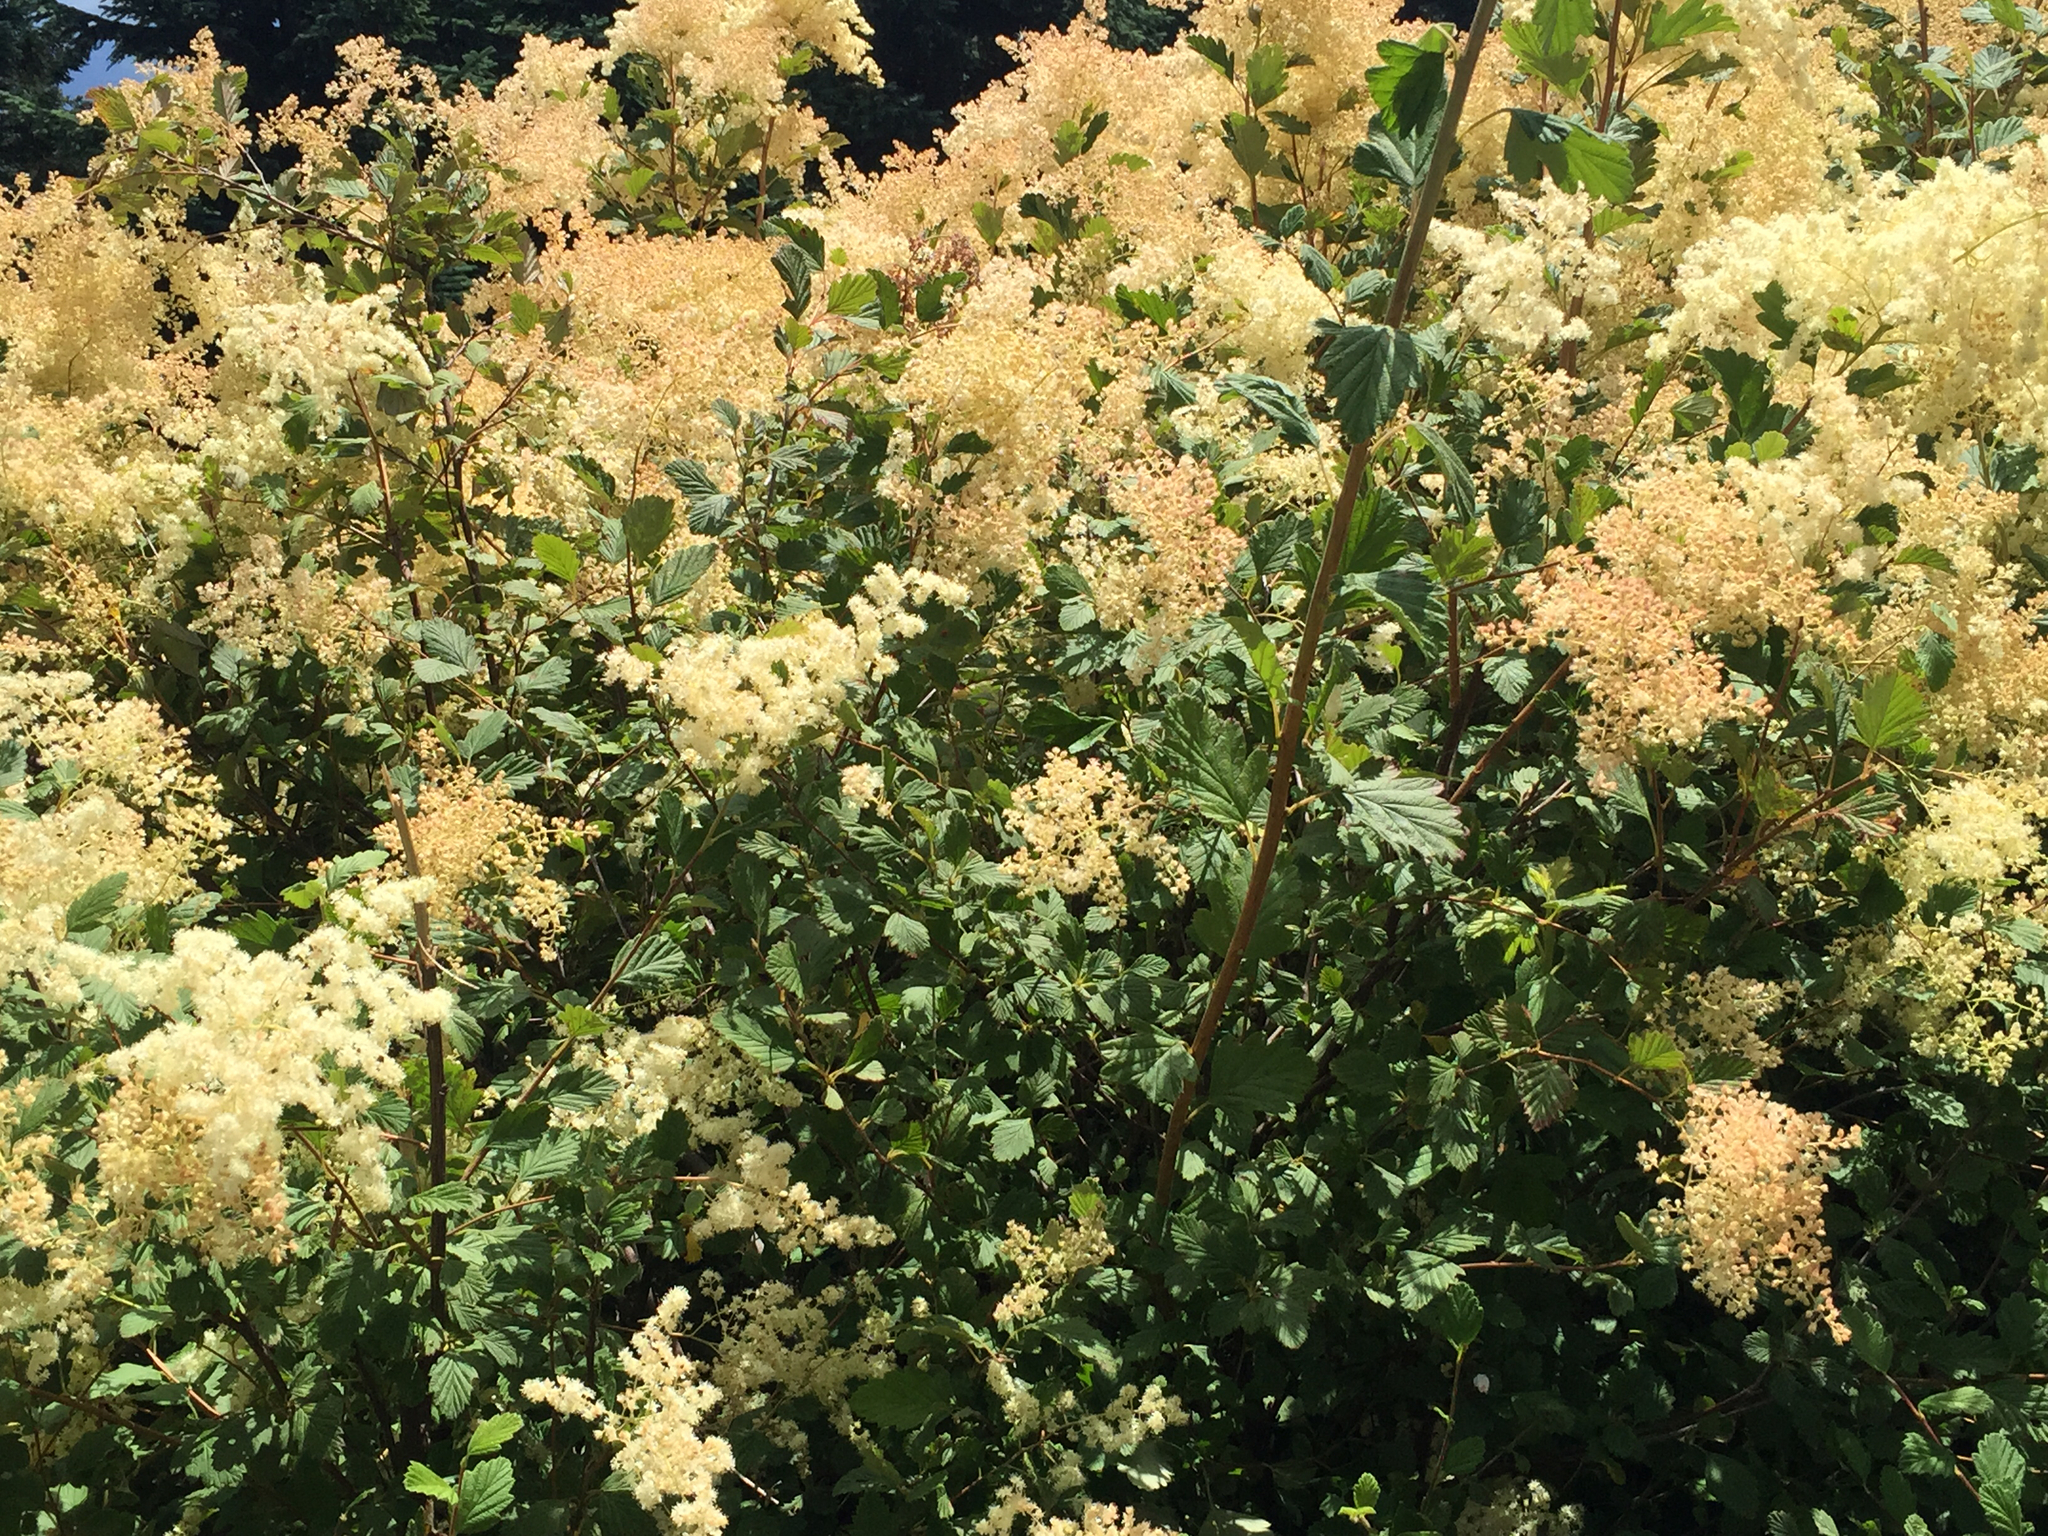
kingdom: Plantae
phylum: Tracheophyta
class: Magnoliopsida
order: Rosales
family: Rosaceae
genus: Holodiscus
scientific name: Holodiscus discolor
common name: Oceanspray
